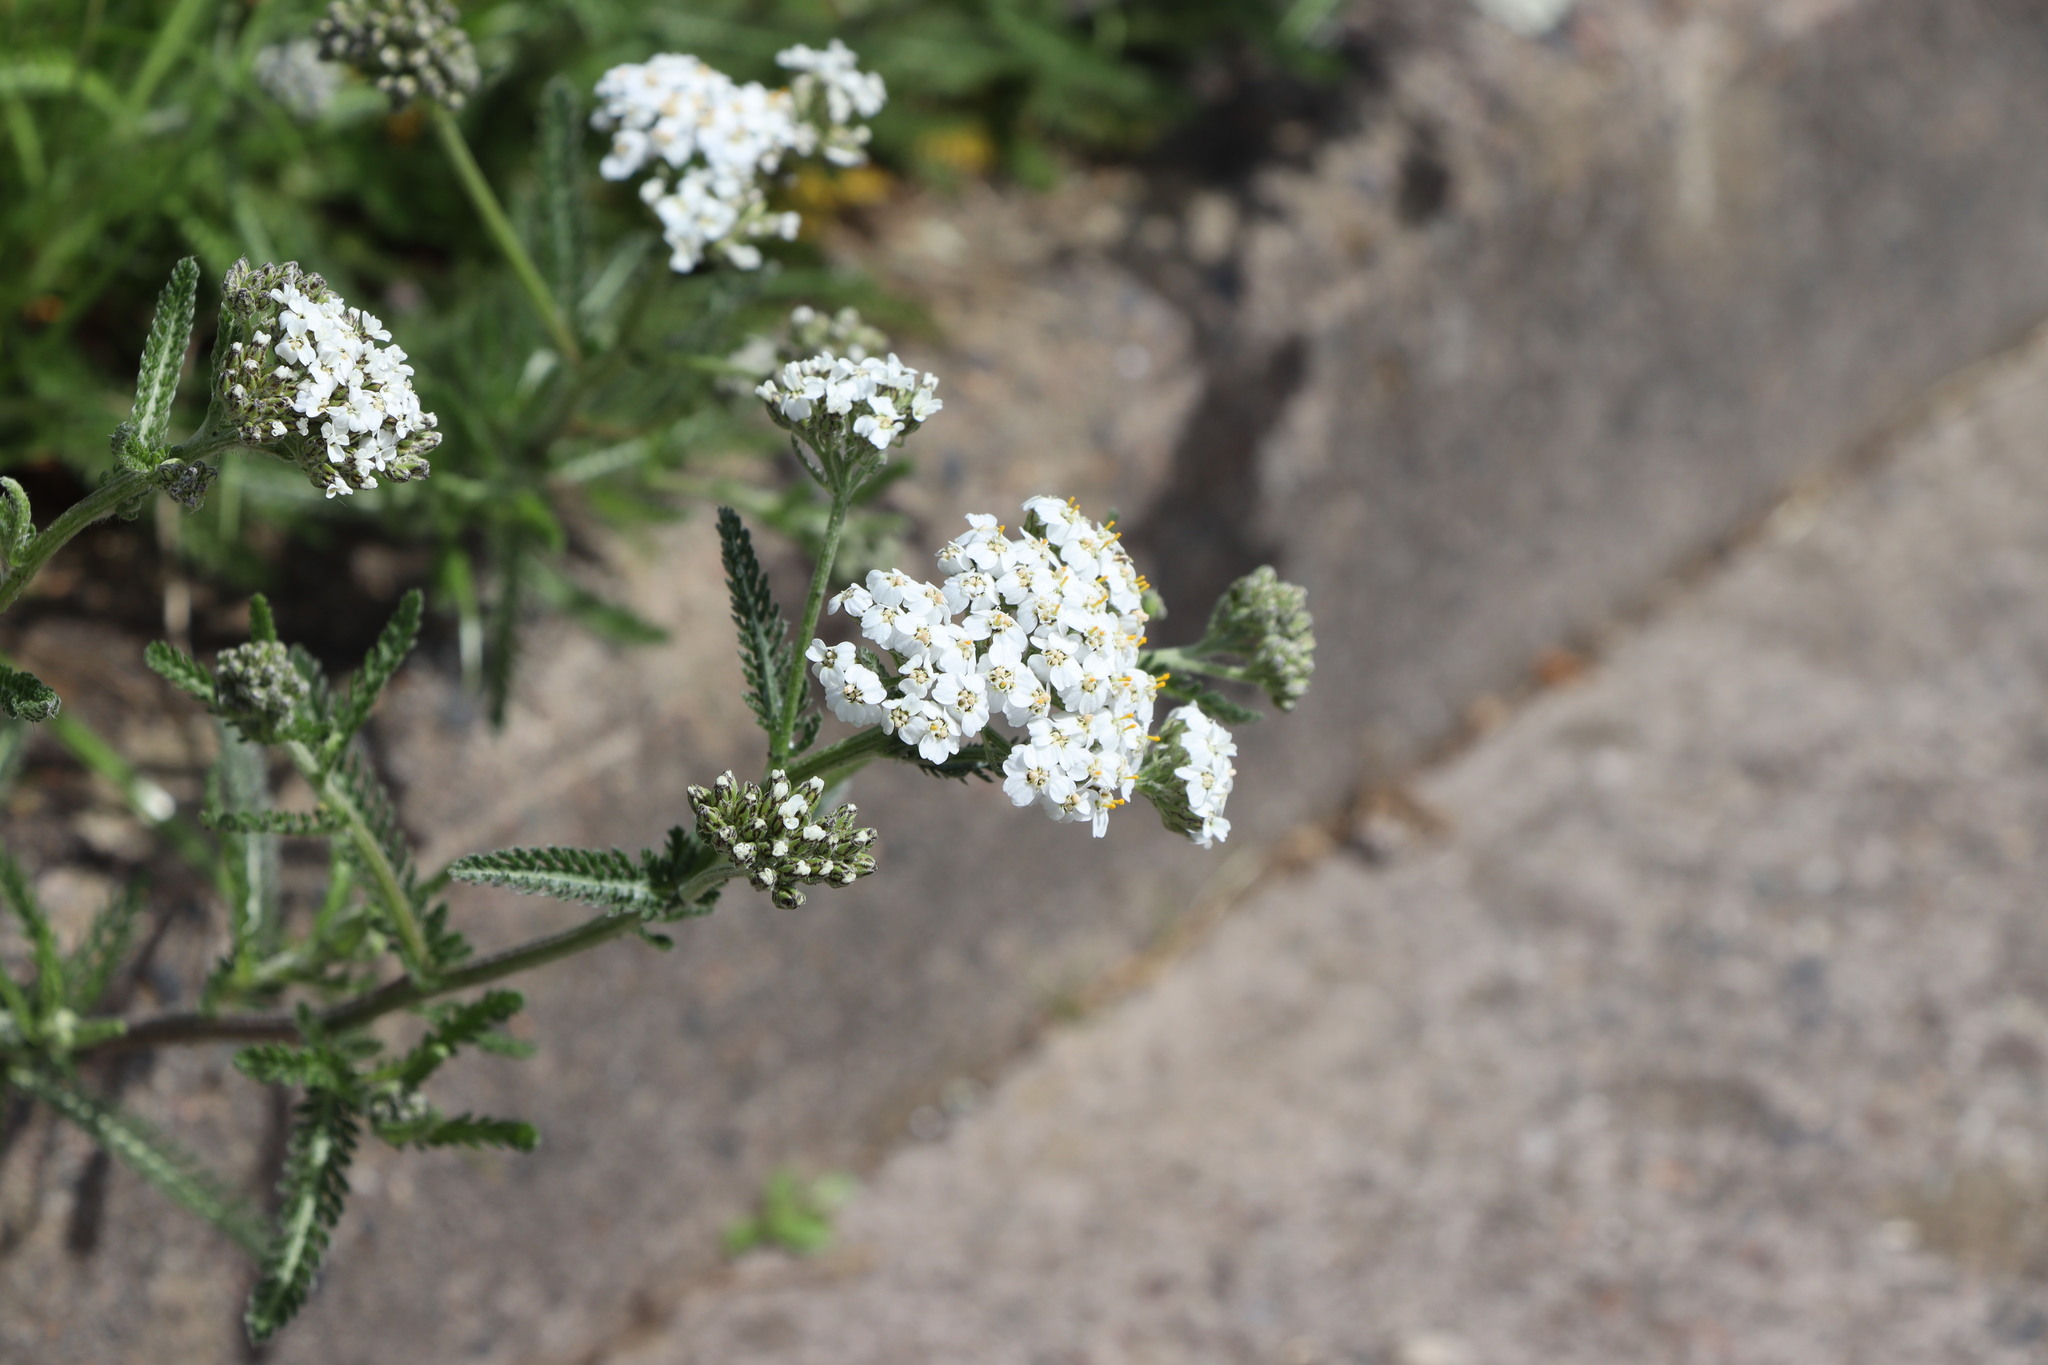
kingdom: Plantae
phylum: Tracheophyta
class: Magnoliopsida
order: Asterales
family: Asteraceae
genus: Achillea
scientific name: Achillea millefolium
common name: Yarrow
